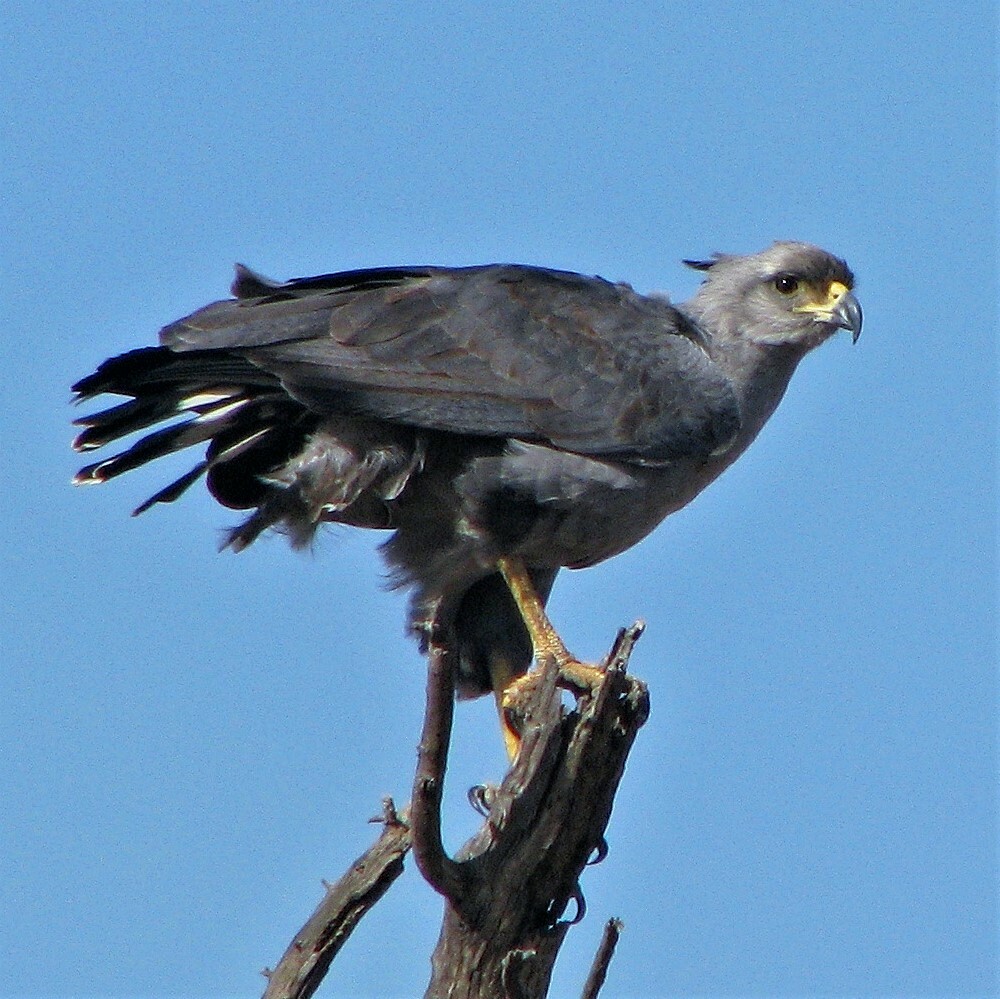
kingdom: Animalia
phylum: Chordata
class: Aves
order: Accipitriformes
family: Accipitridae
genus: Harpyhaliaetus
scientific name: Harpyhaliaetus coronatus
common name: Crowned solitary eagle
